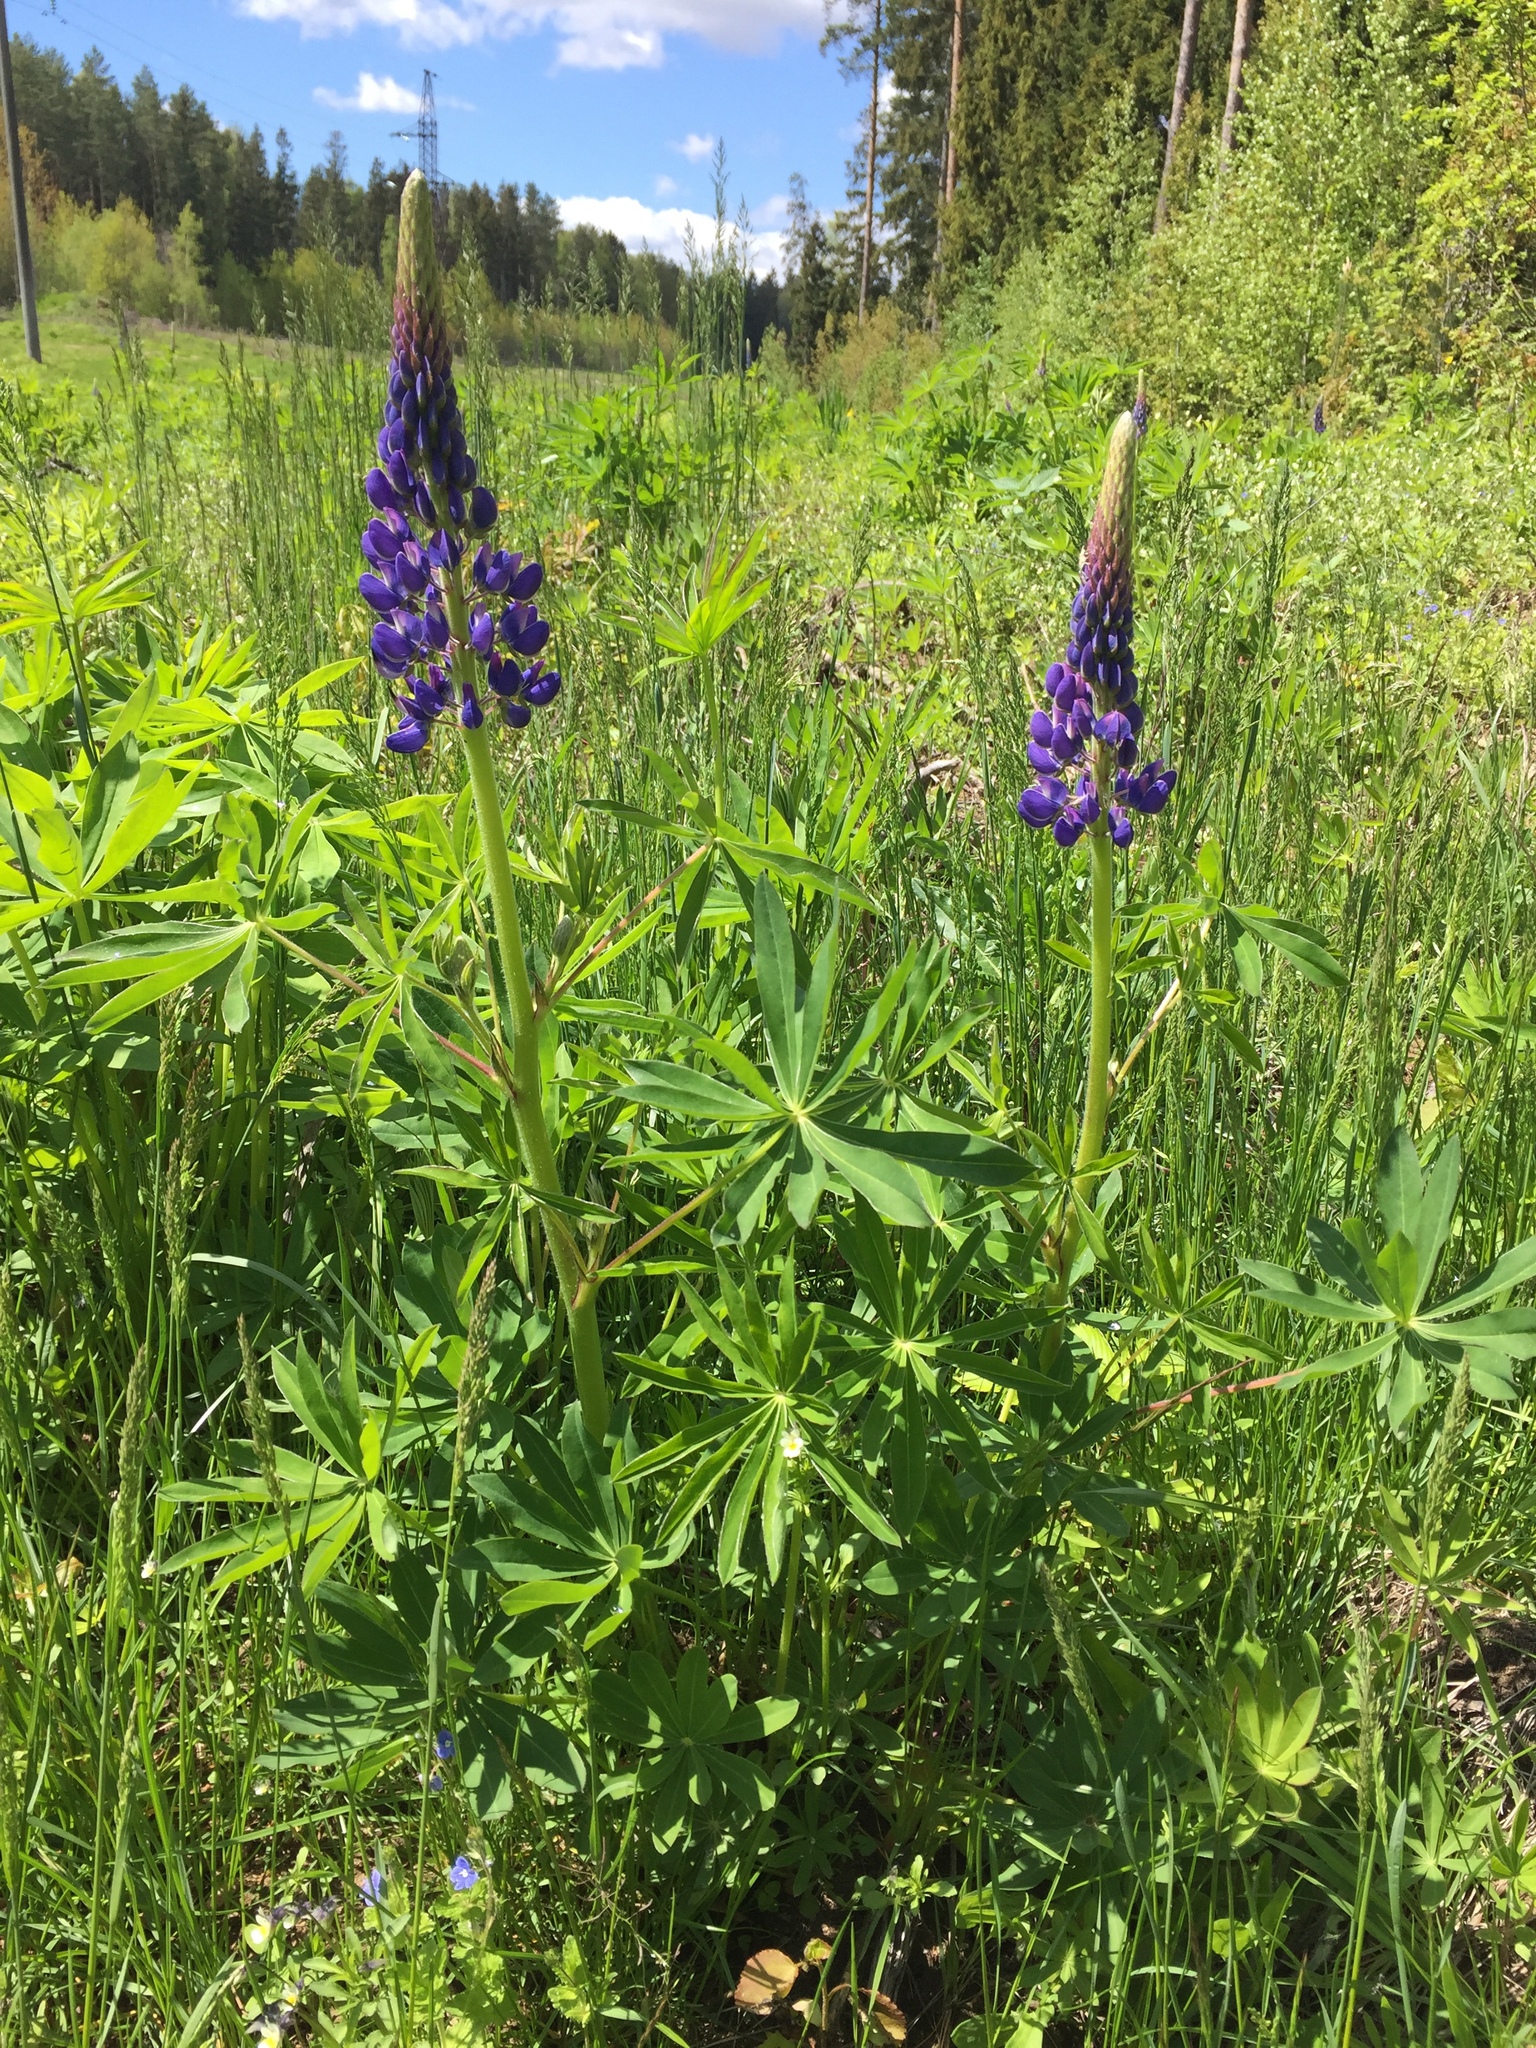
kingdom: Plantae
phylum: Tracheophyta
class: Magnoliopsida
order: Fabales
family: Fabaceae
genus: Lupinus
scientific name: Lupinus polyphyllus
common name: Garden lupin
